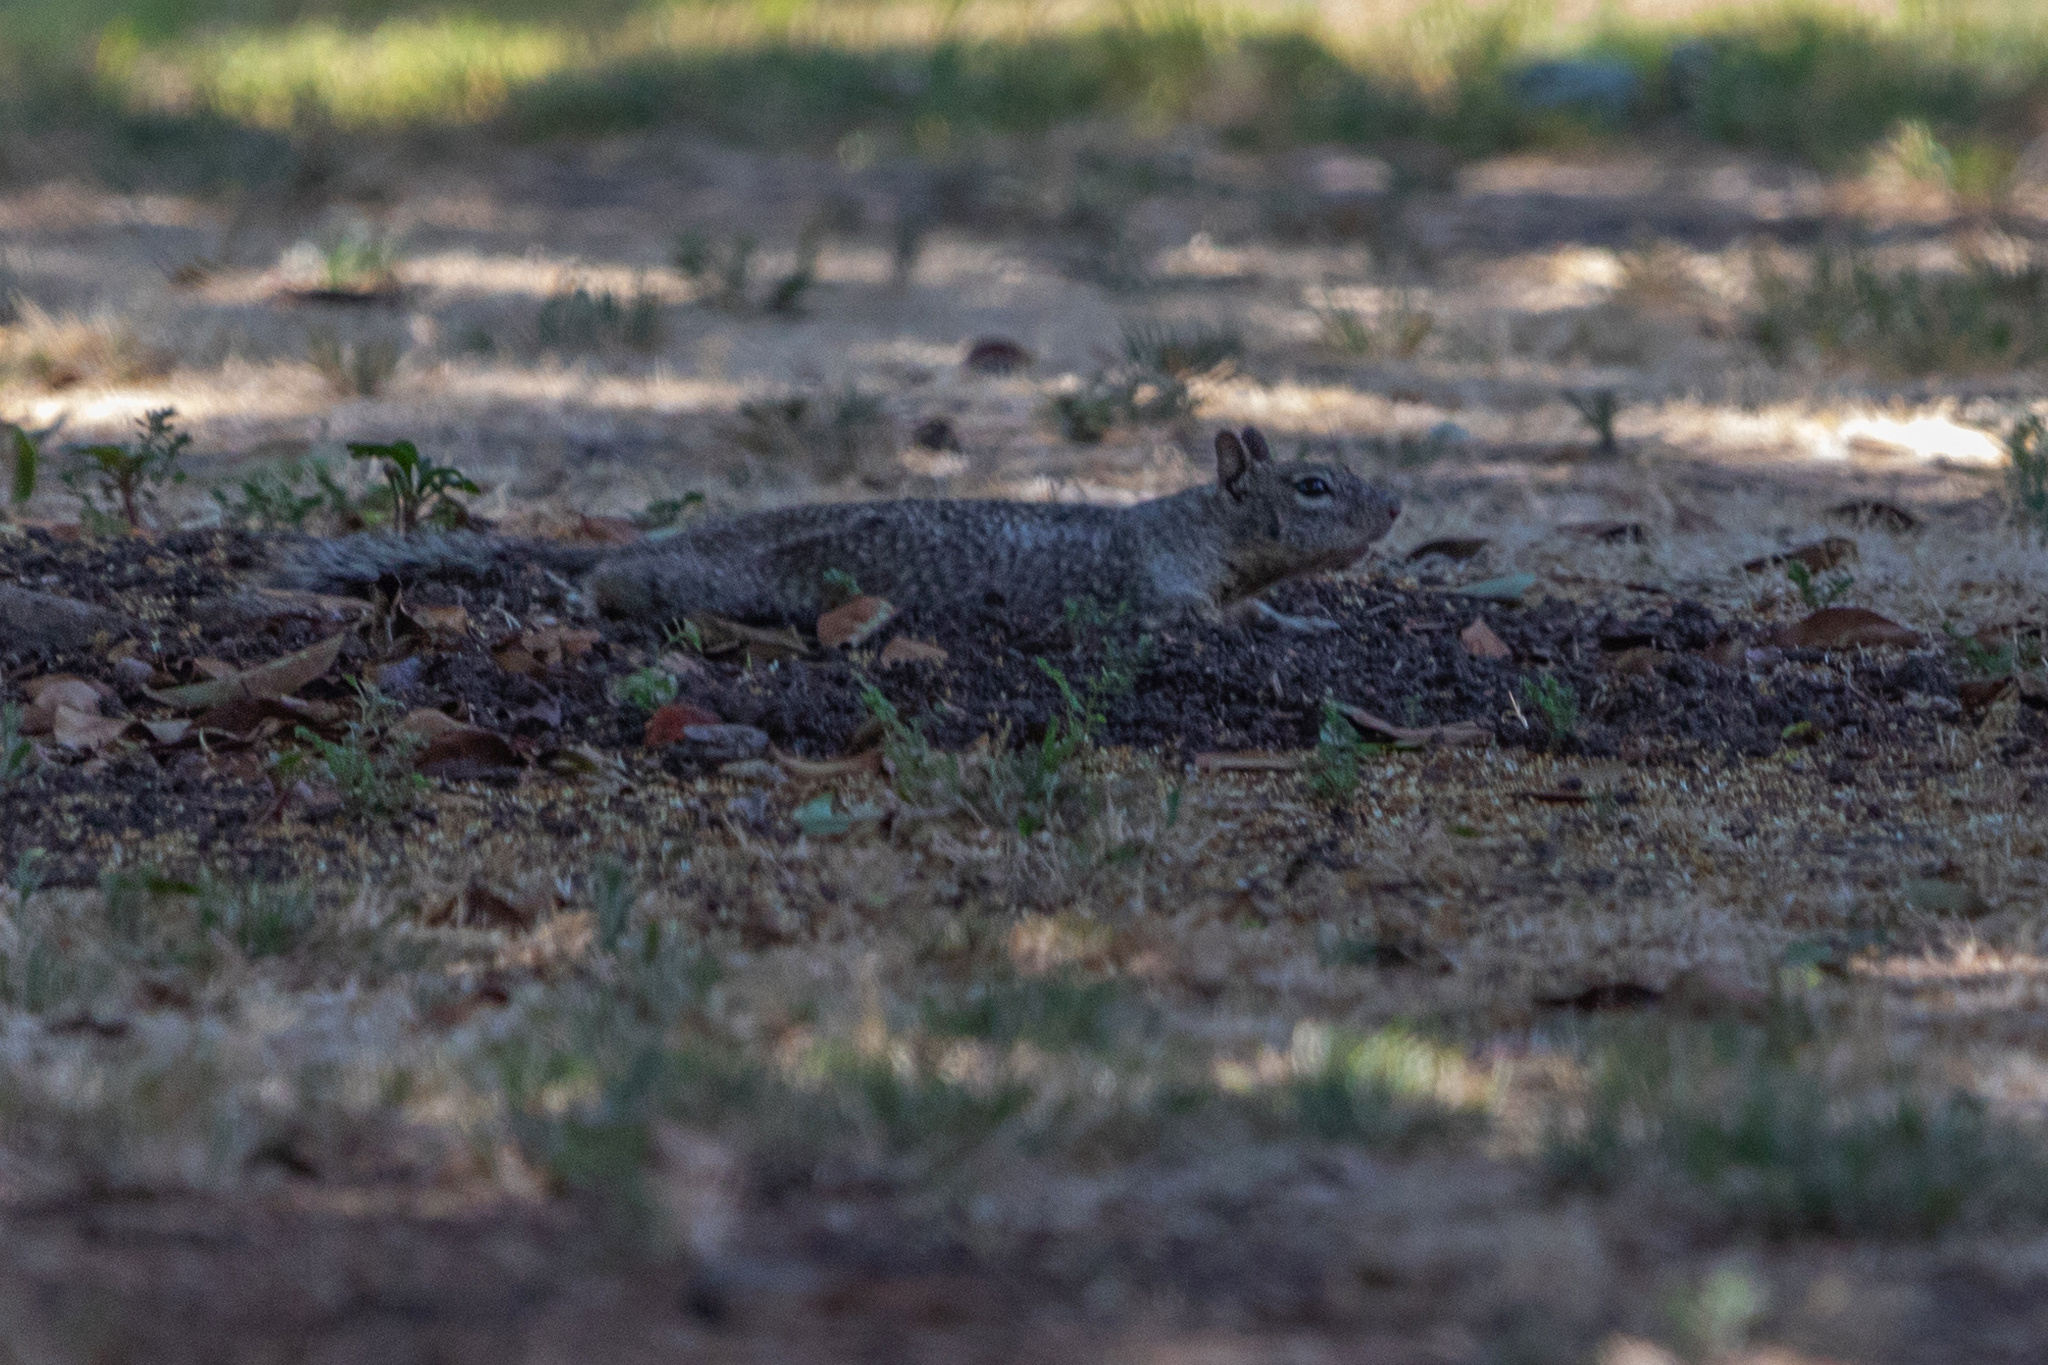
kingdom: Animalia
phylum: Chordata
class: Mammalia
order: Rodentia
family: Sciuridae
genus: Otospermophilus
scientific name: Otospermophilus beecheyi
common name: California ground squirrel
